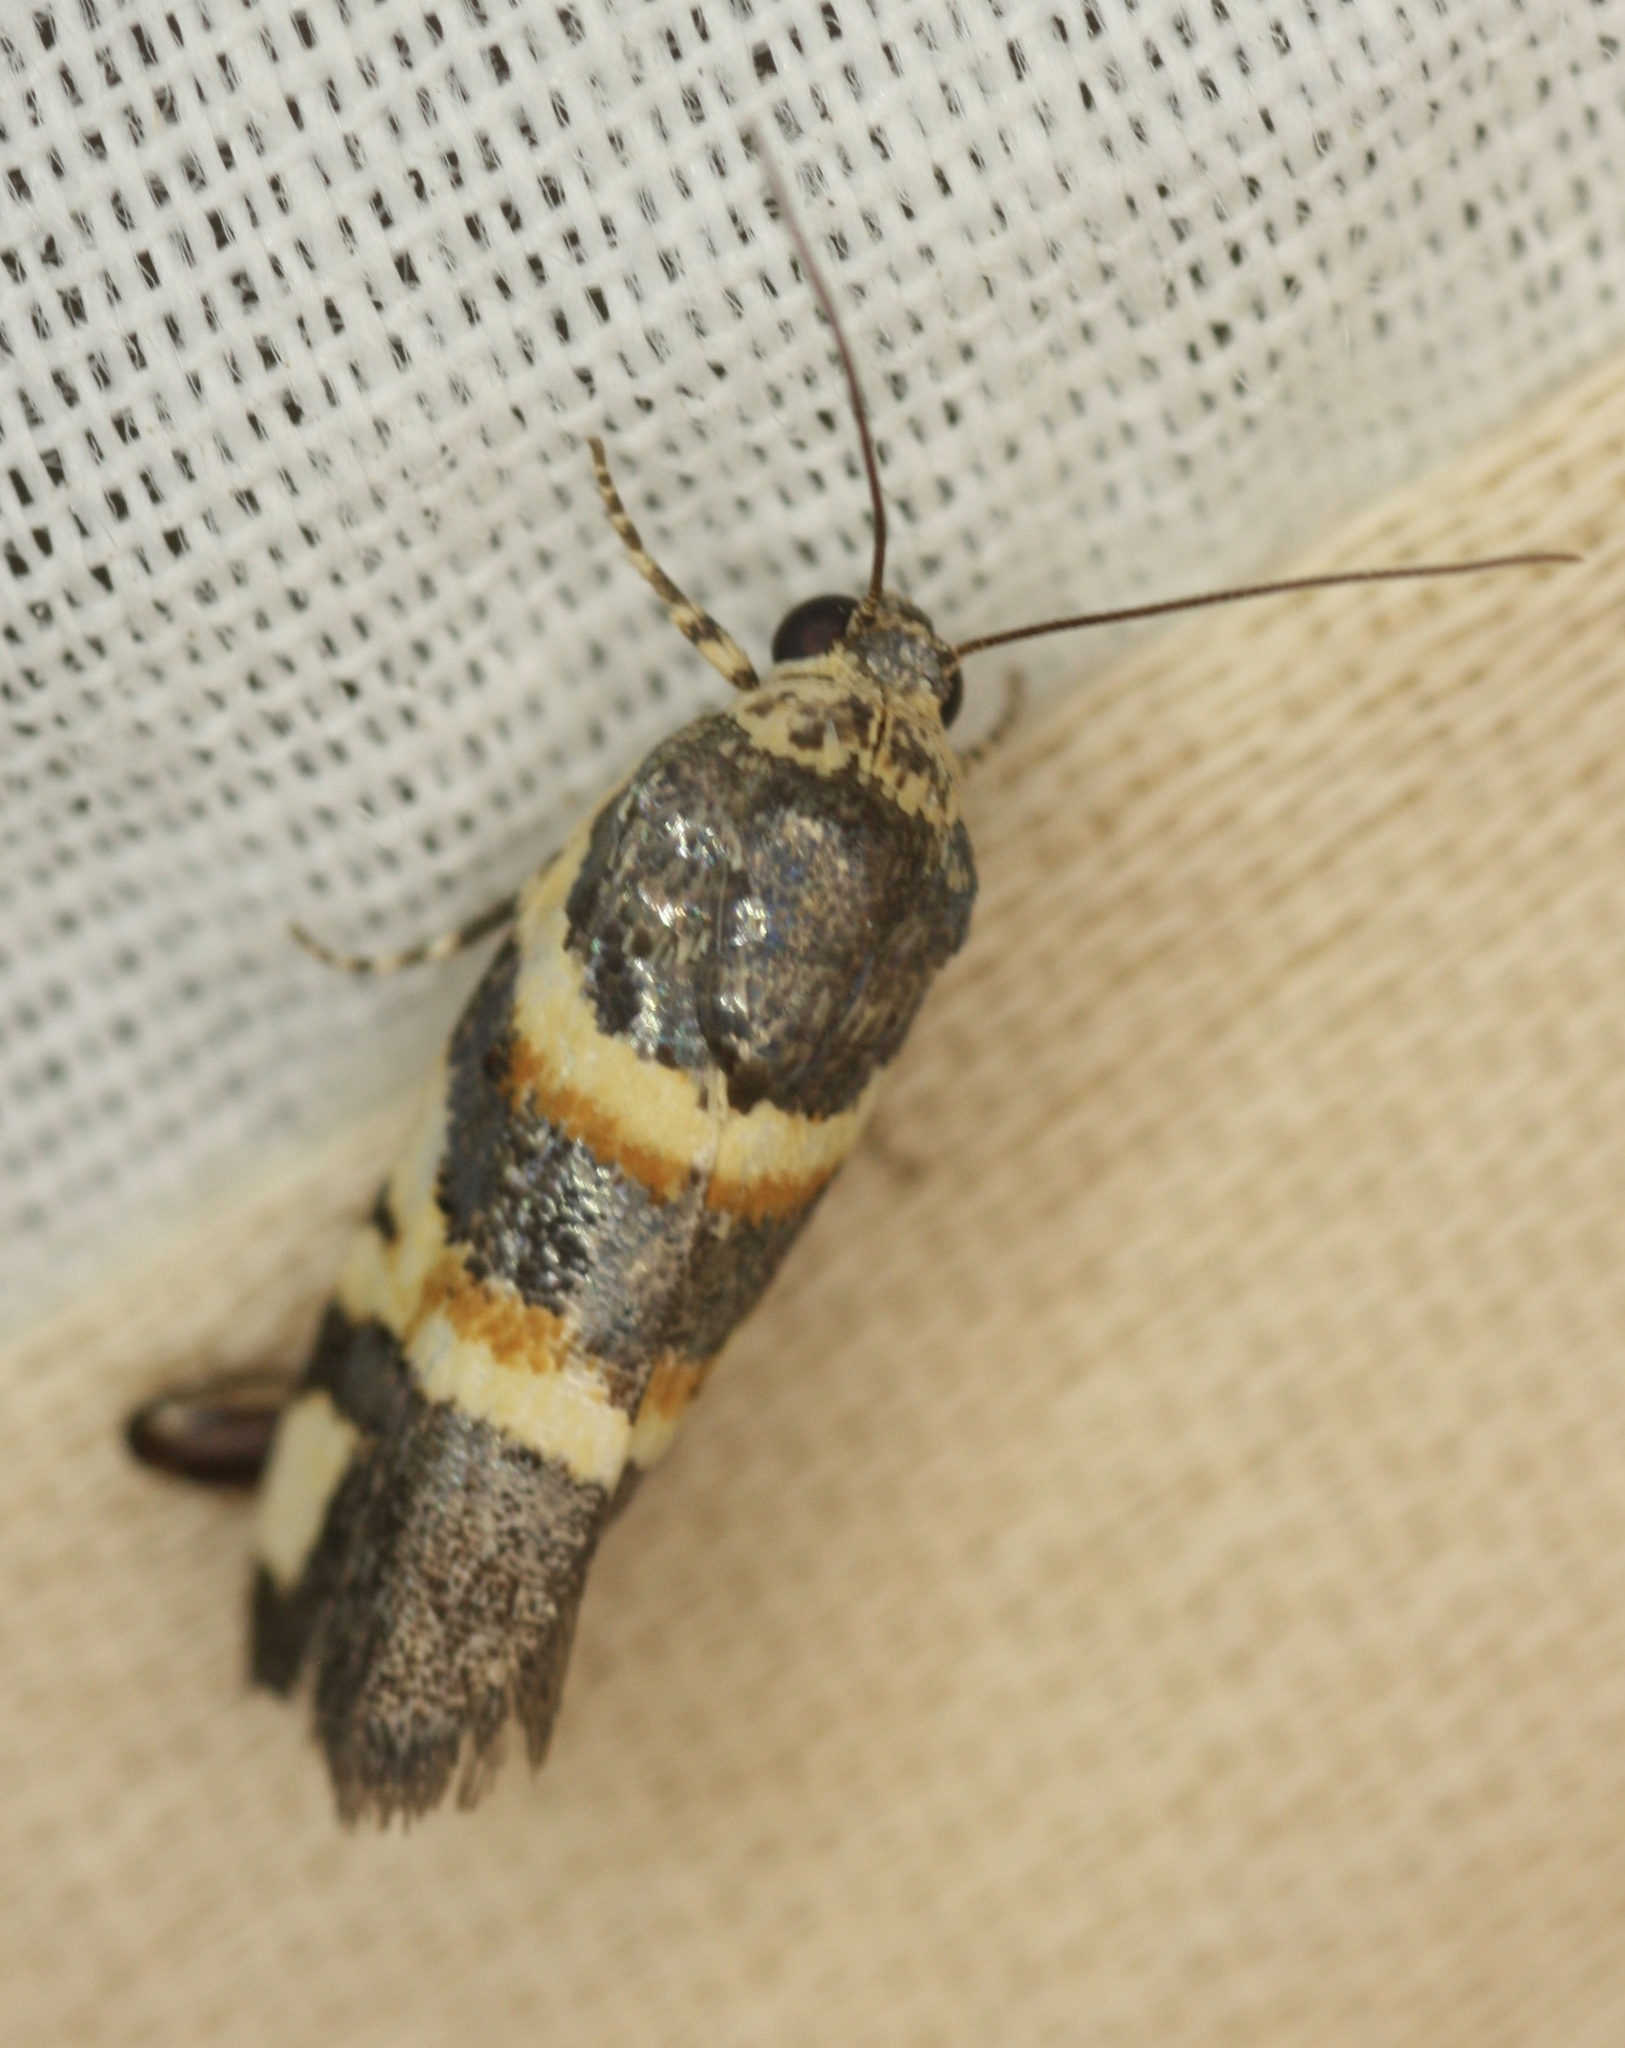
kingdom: Animalia
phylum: Arthropoda
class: Insecta
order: Lepidoptera
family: Noctuidae
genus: Spragueia
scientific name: Spragueia funeralis
